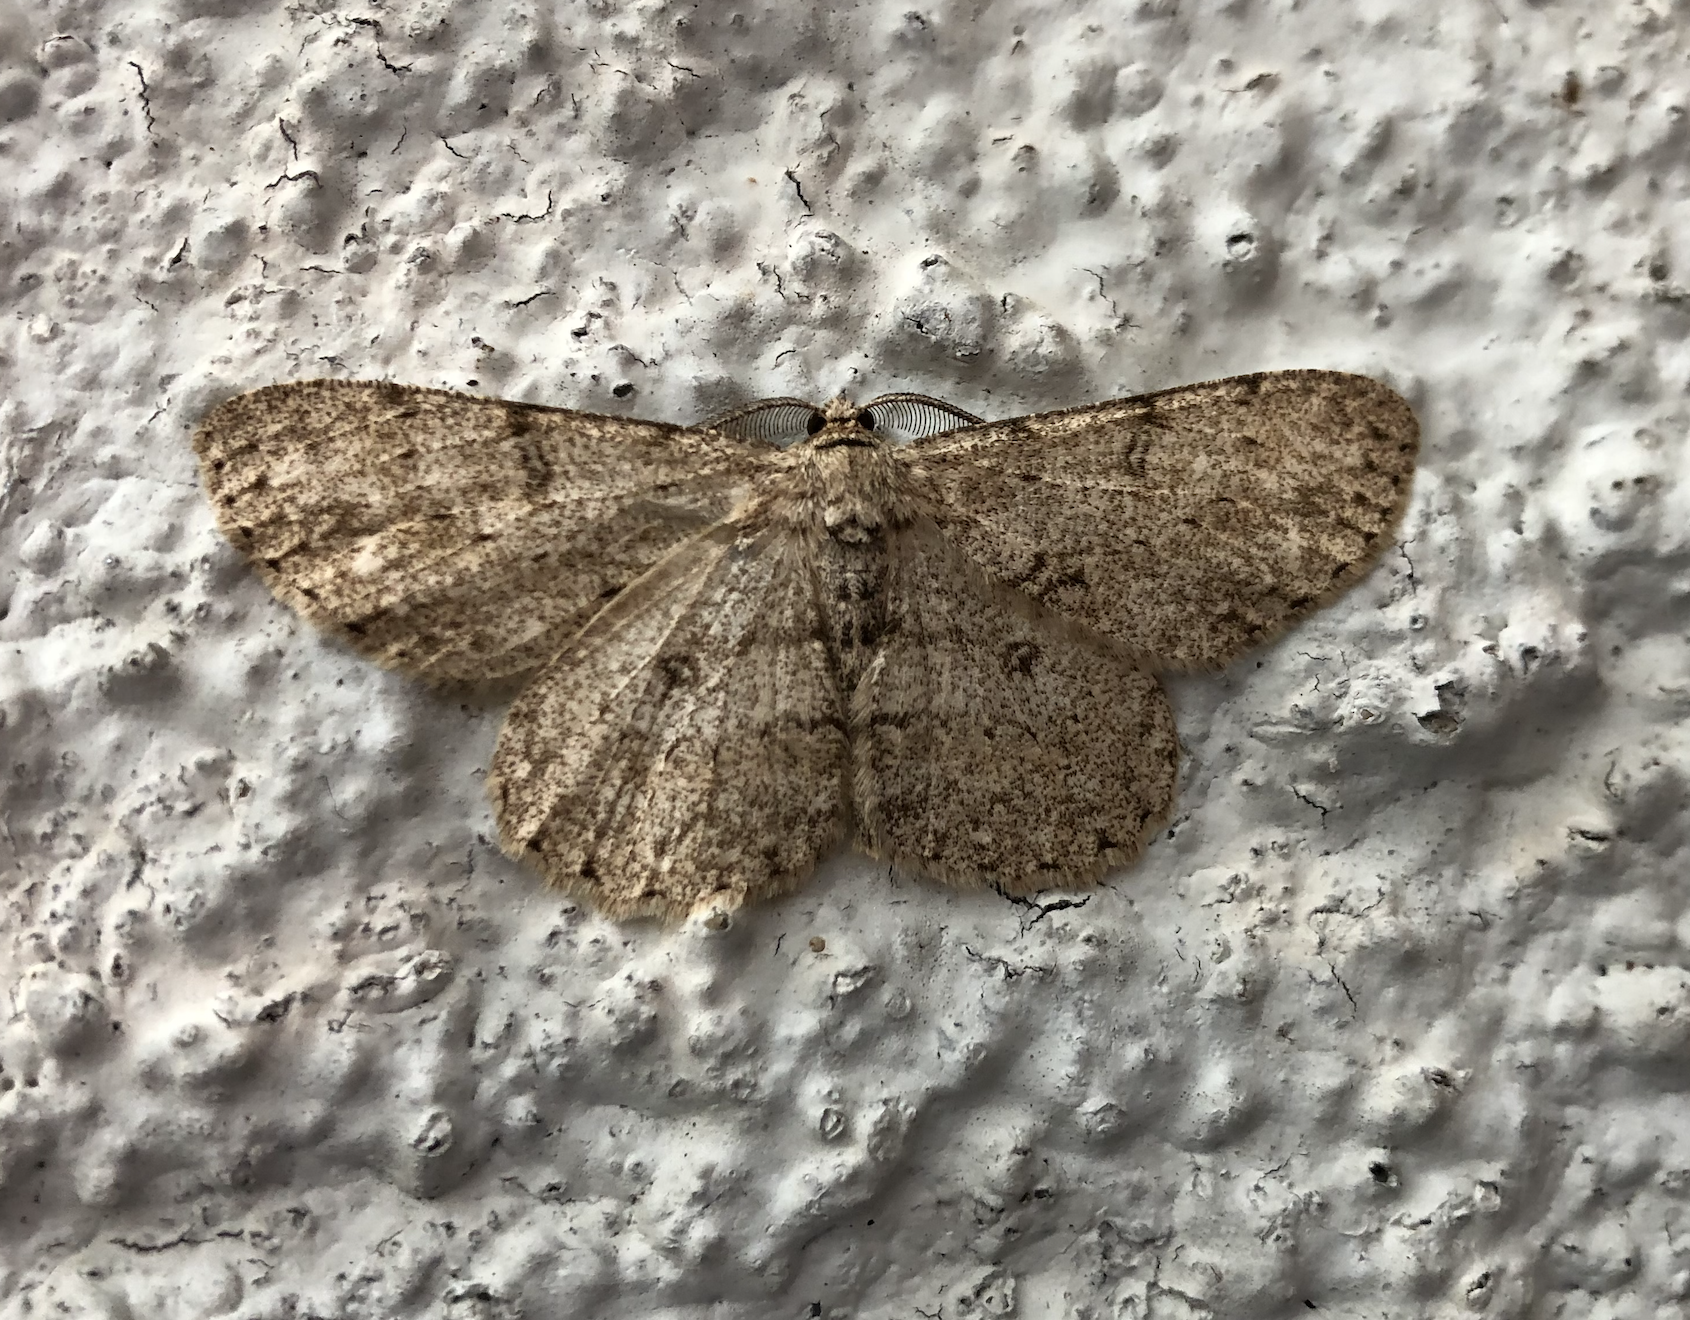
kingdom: Animalia
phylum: Arthropoda
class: Insecta
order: Lepidoptera
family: Geometridae
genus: Hypomecis
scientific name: Hypomecis punctinalis
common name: Pale oak beauty
